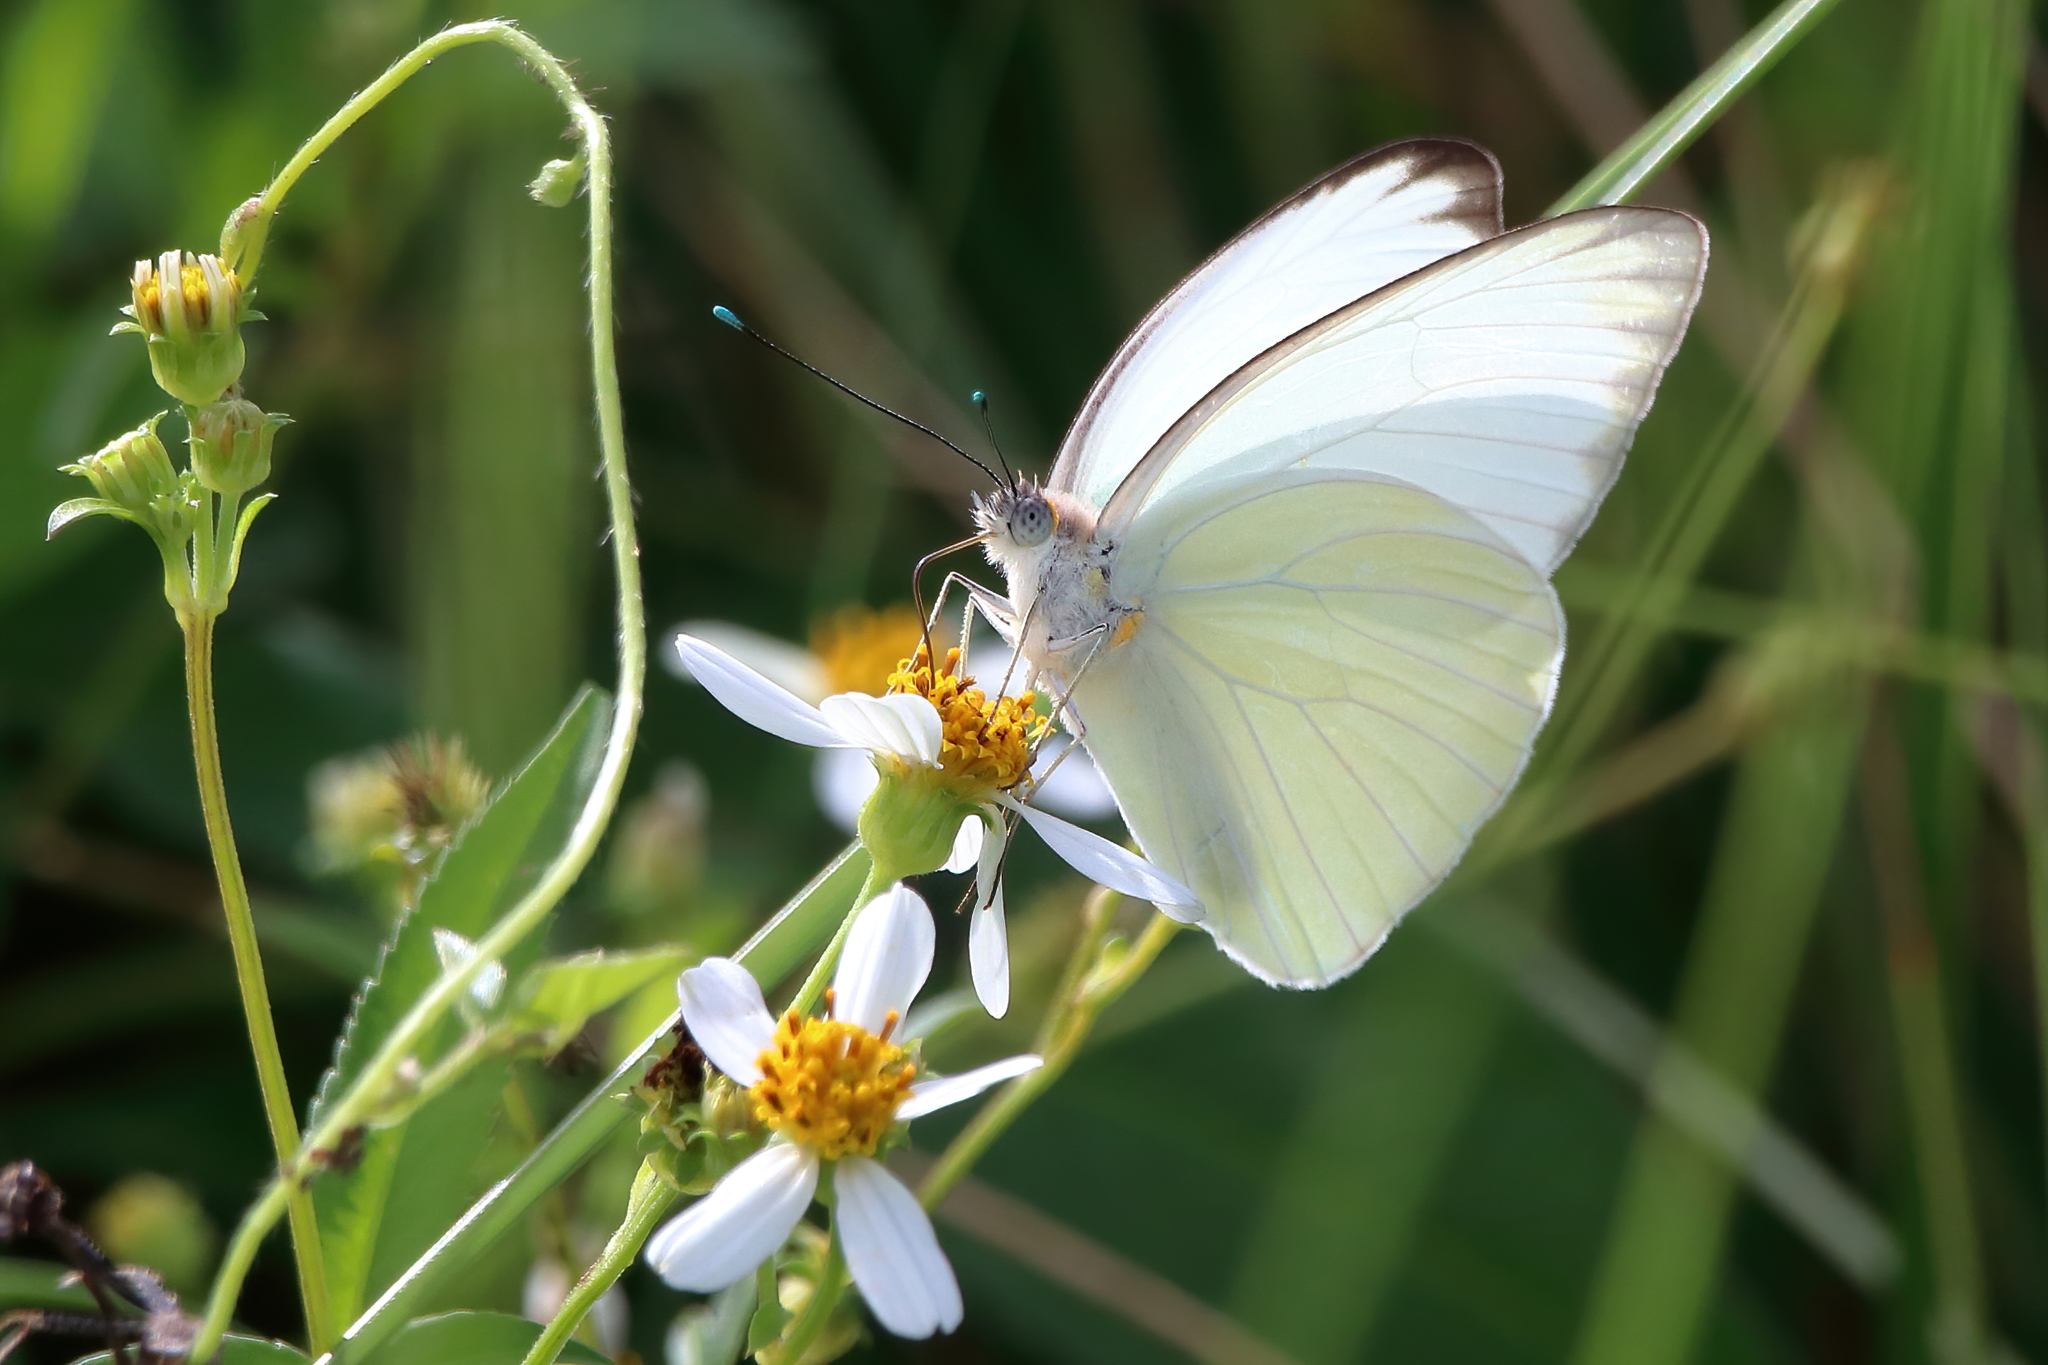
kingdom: Animalia
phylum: Arthropoda
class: Insecta
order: Lepidoptera
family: Pieridae
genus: Ascia
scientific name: Ascia monuste
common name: Great southern white
